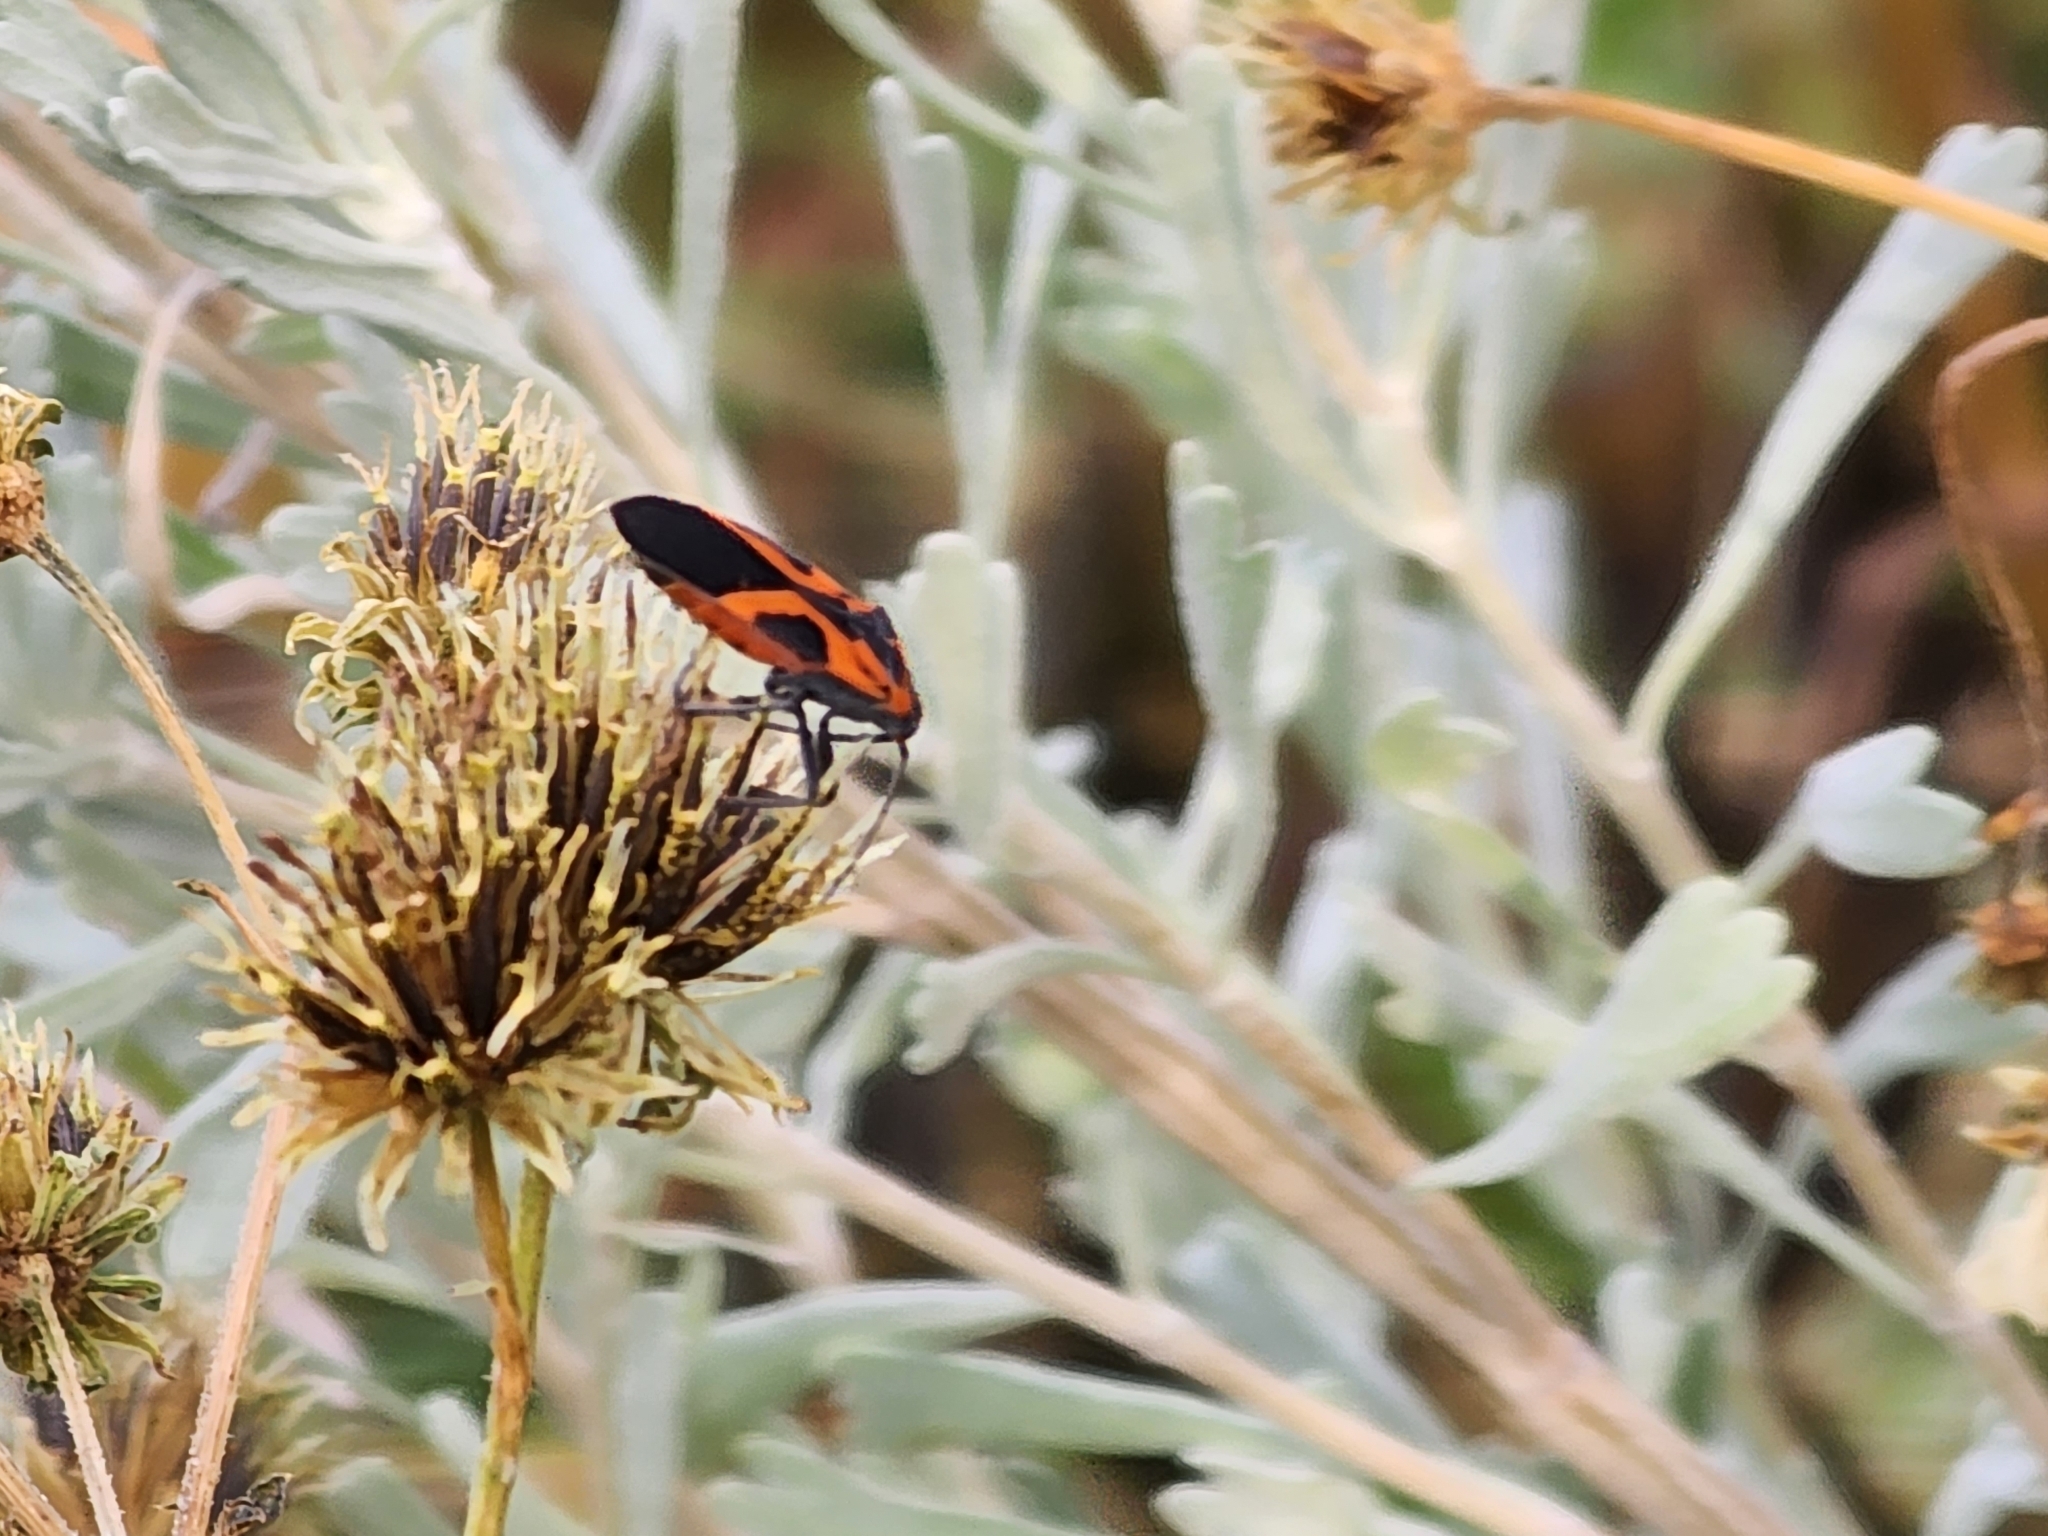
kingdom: Animalia
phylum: Arthropoda
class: Insecta
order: Hemiptera
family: Lygaeidae
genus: Lygaeus
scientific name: Lygaeus turcicus
